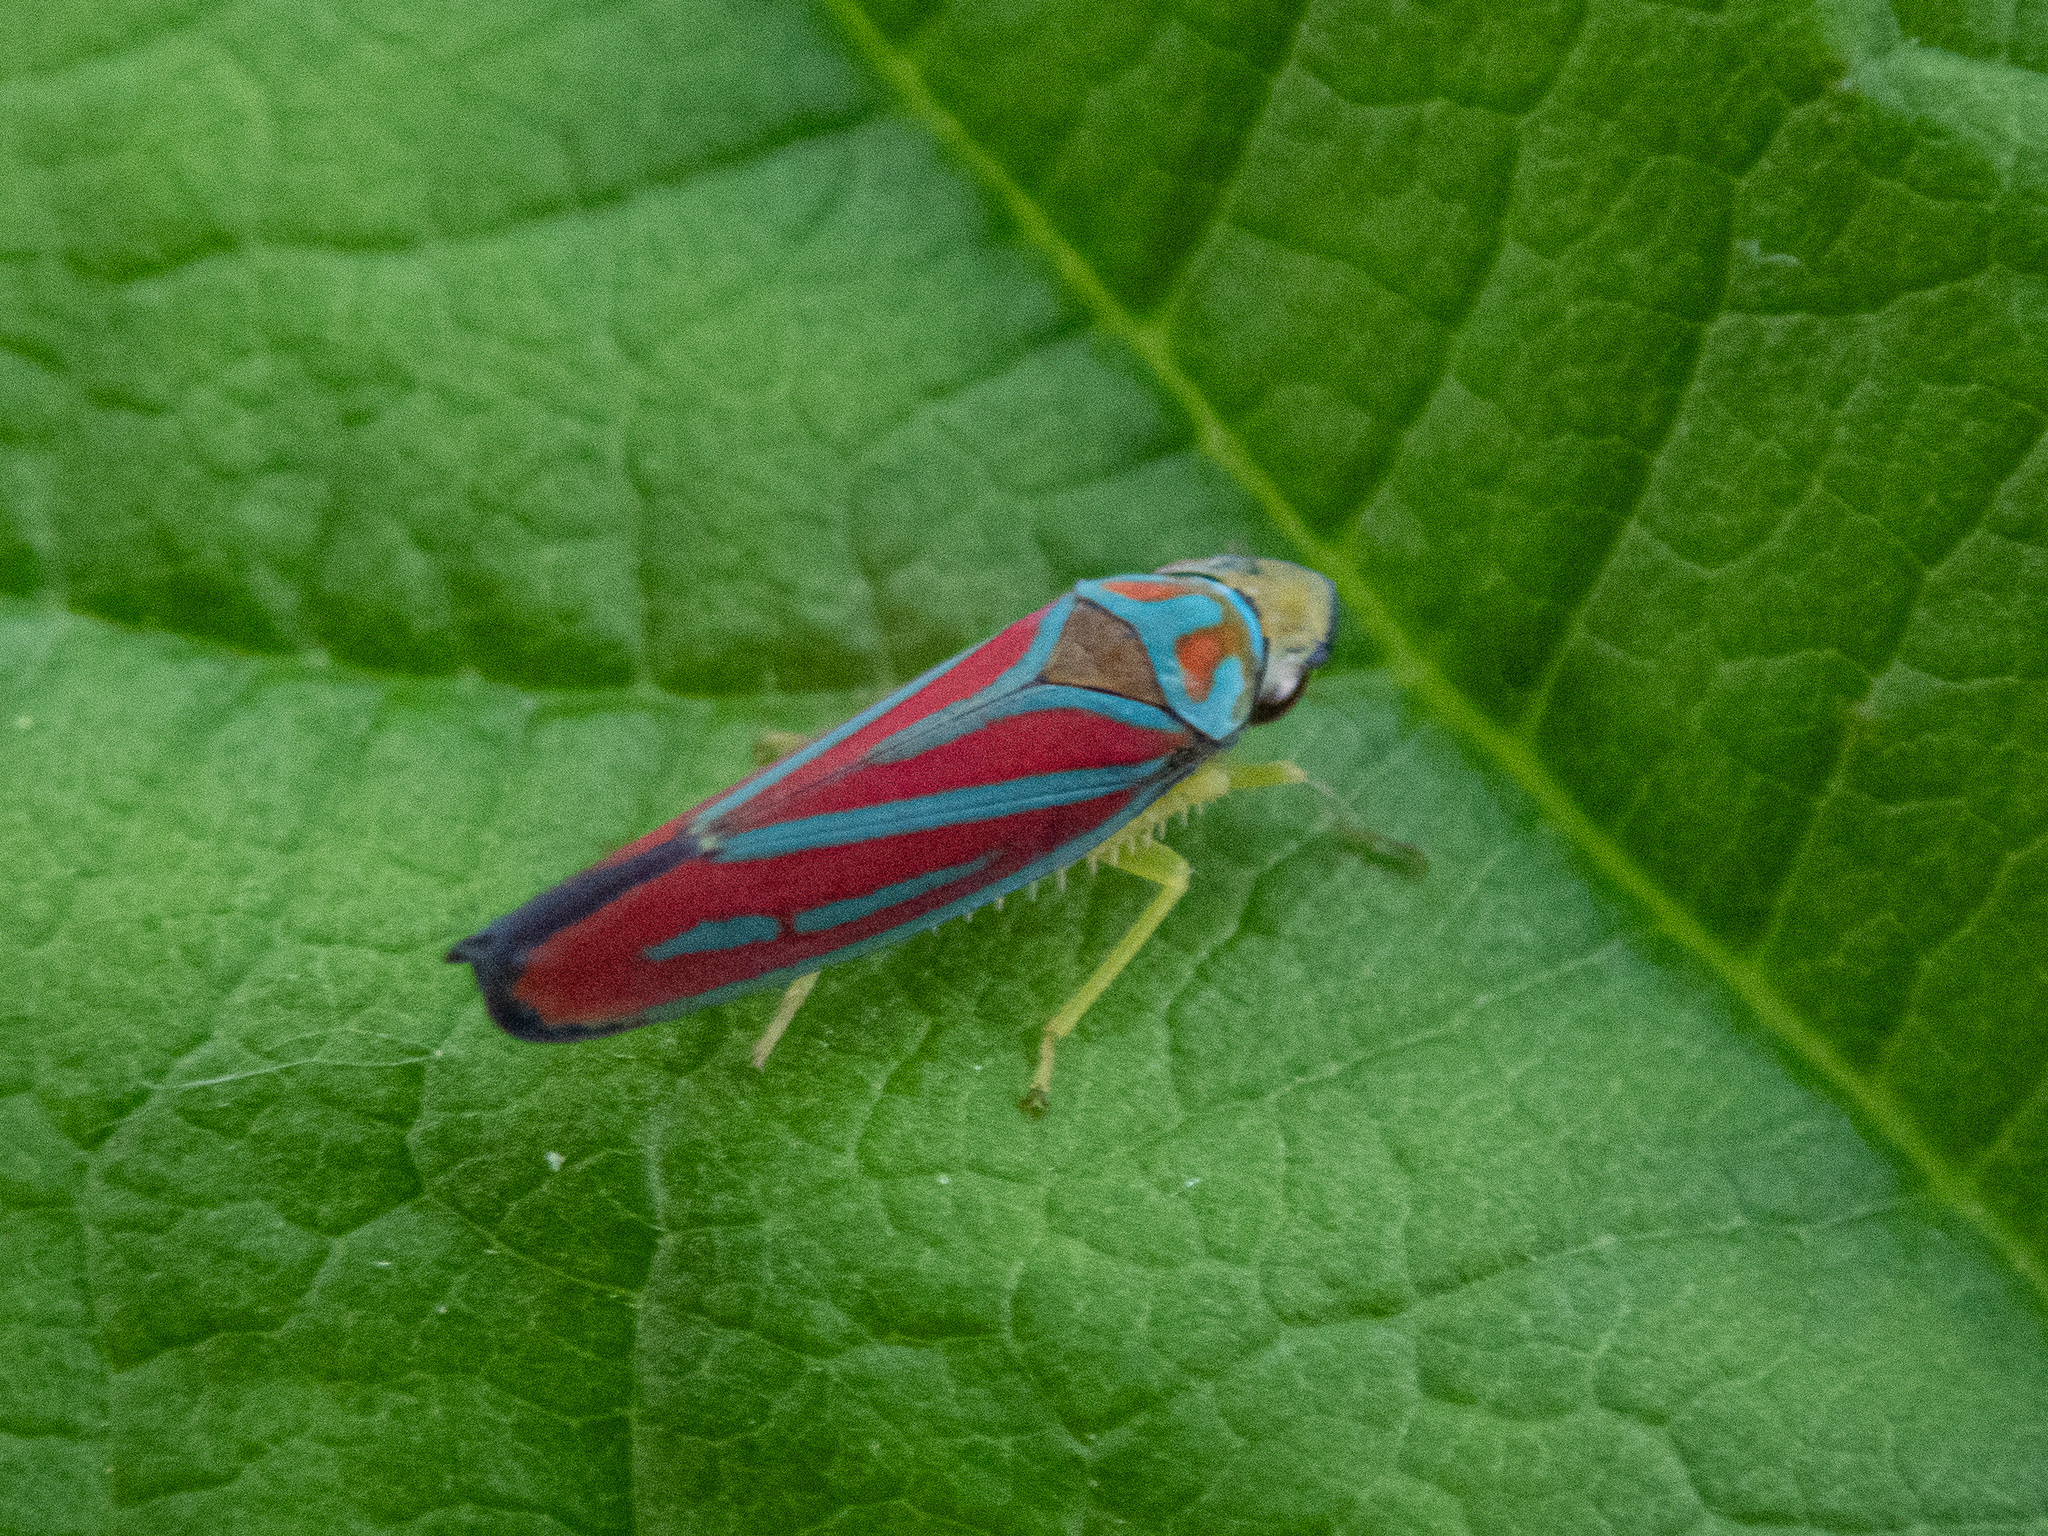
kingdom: Animalia
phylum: Arthropoda
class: Insecta
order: Hemiptera
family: Cicadellidae
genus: Graphocephala
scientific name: Graphocephala coccinea
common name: Candy-striped leafhopper
